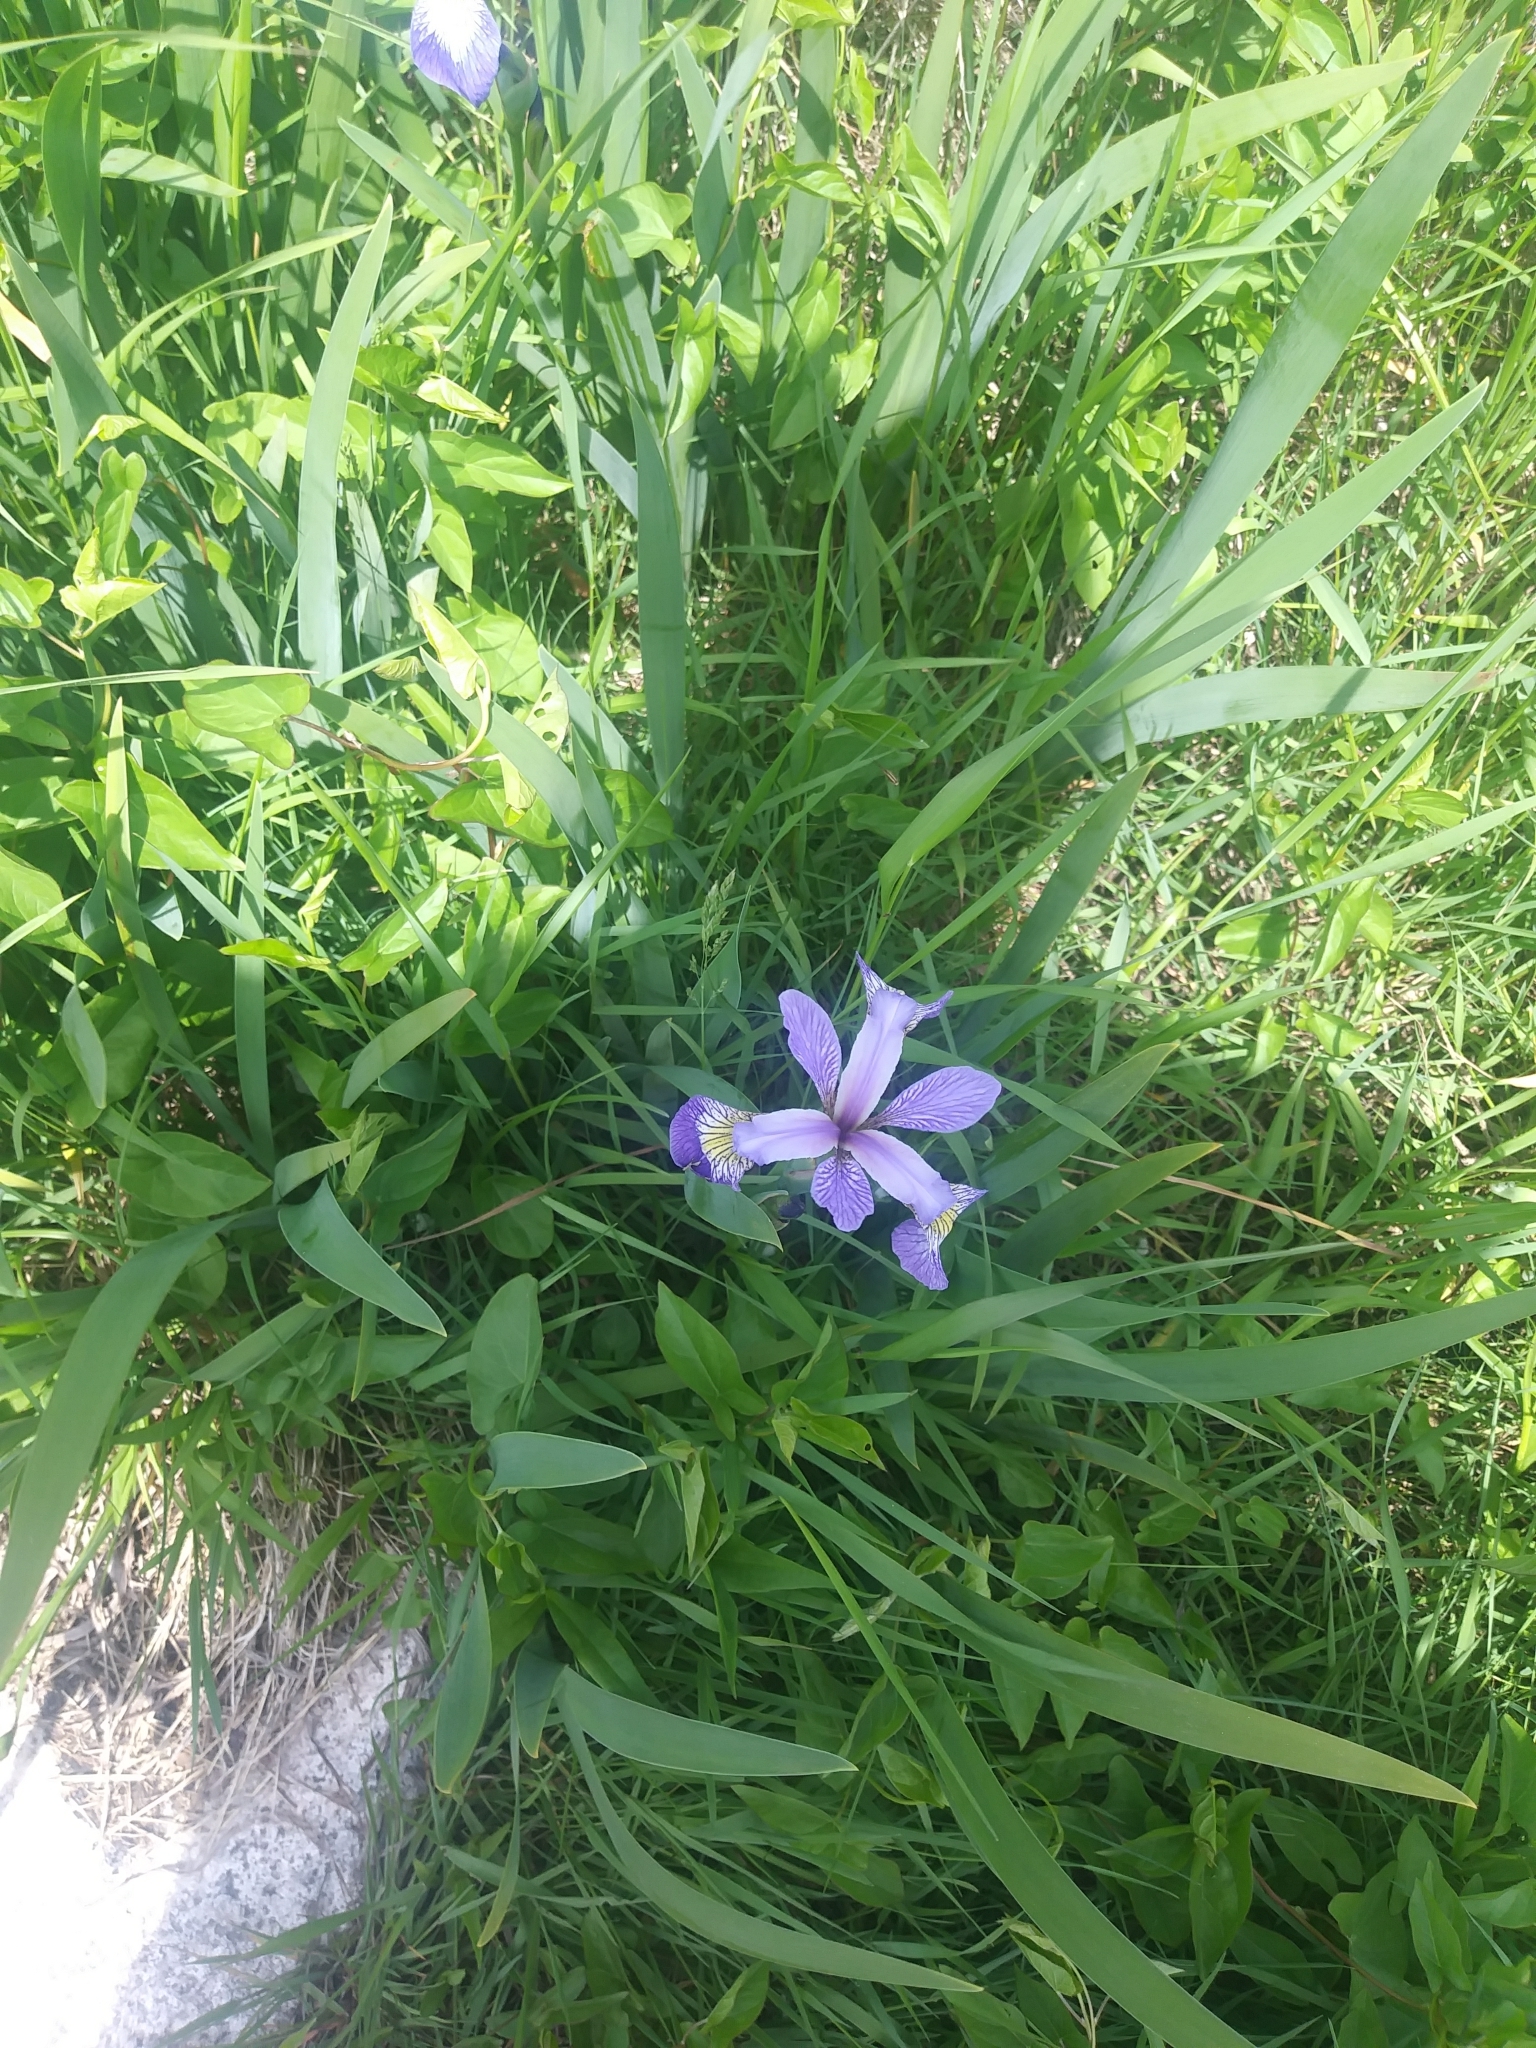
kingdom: Plantae
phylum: Tracheophyta
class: Liliopsida
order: Asparagales
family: Iridaceae
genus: Iris
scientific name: Iris versicolor
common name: Purple iris
